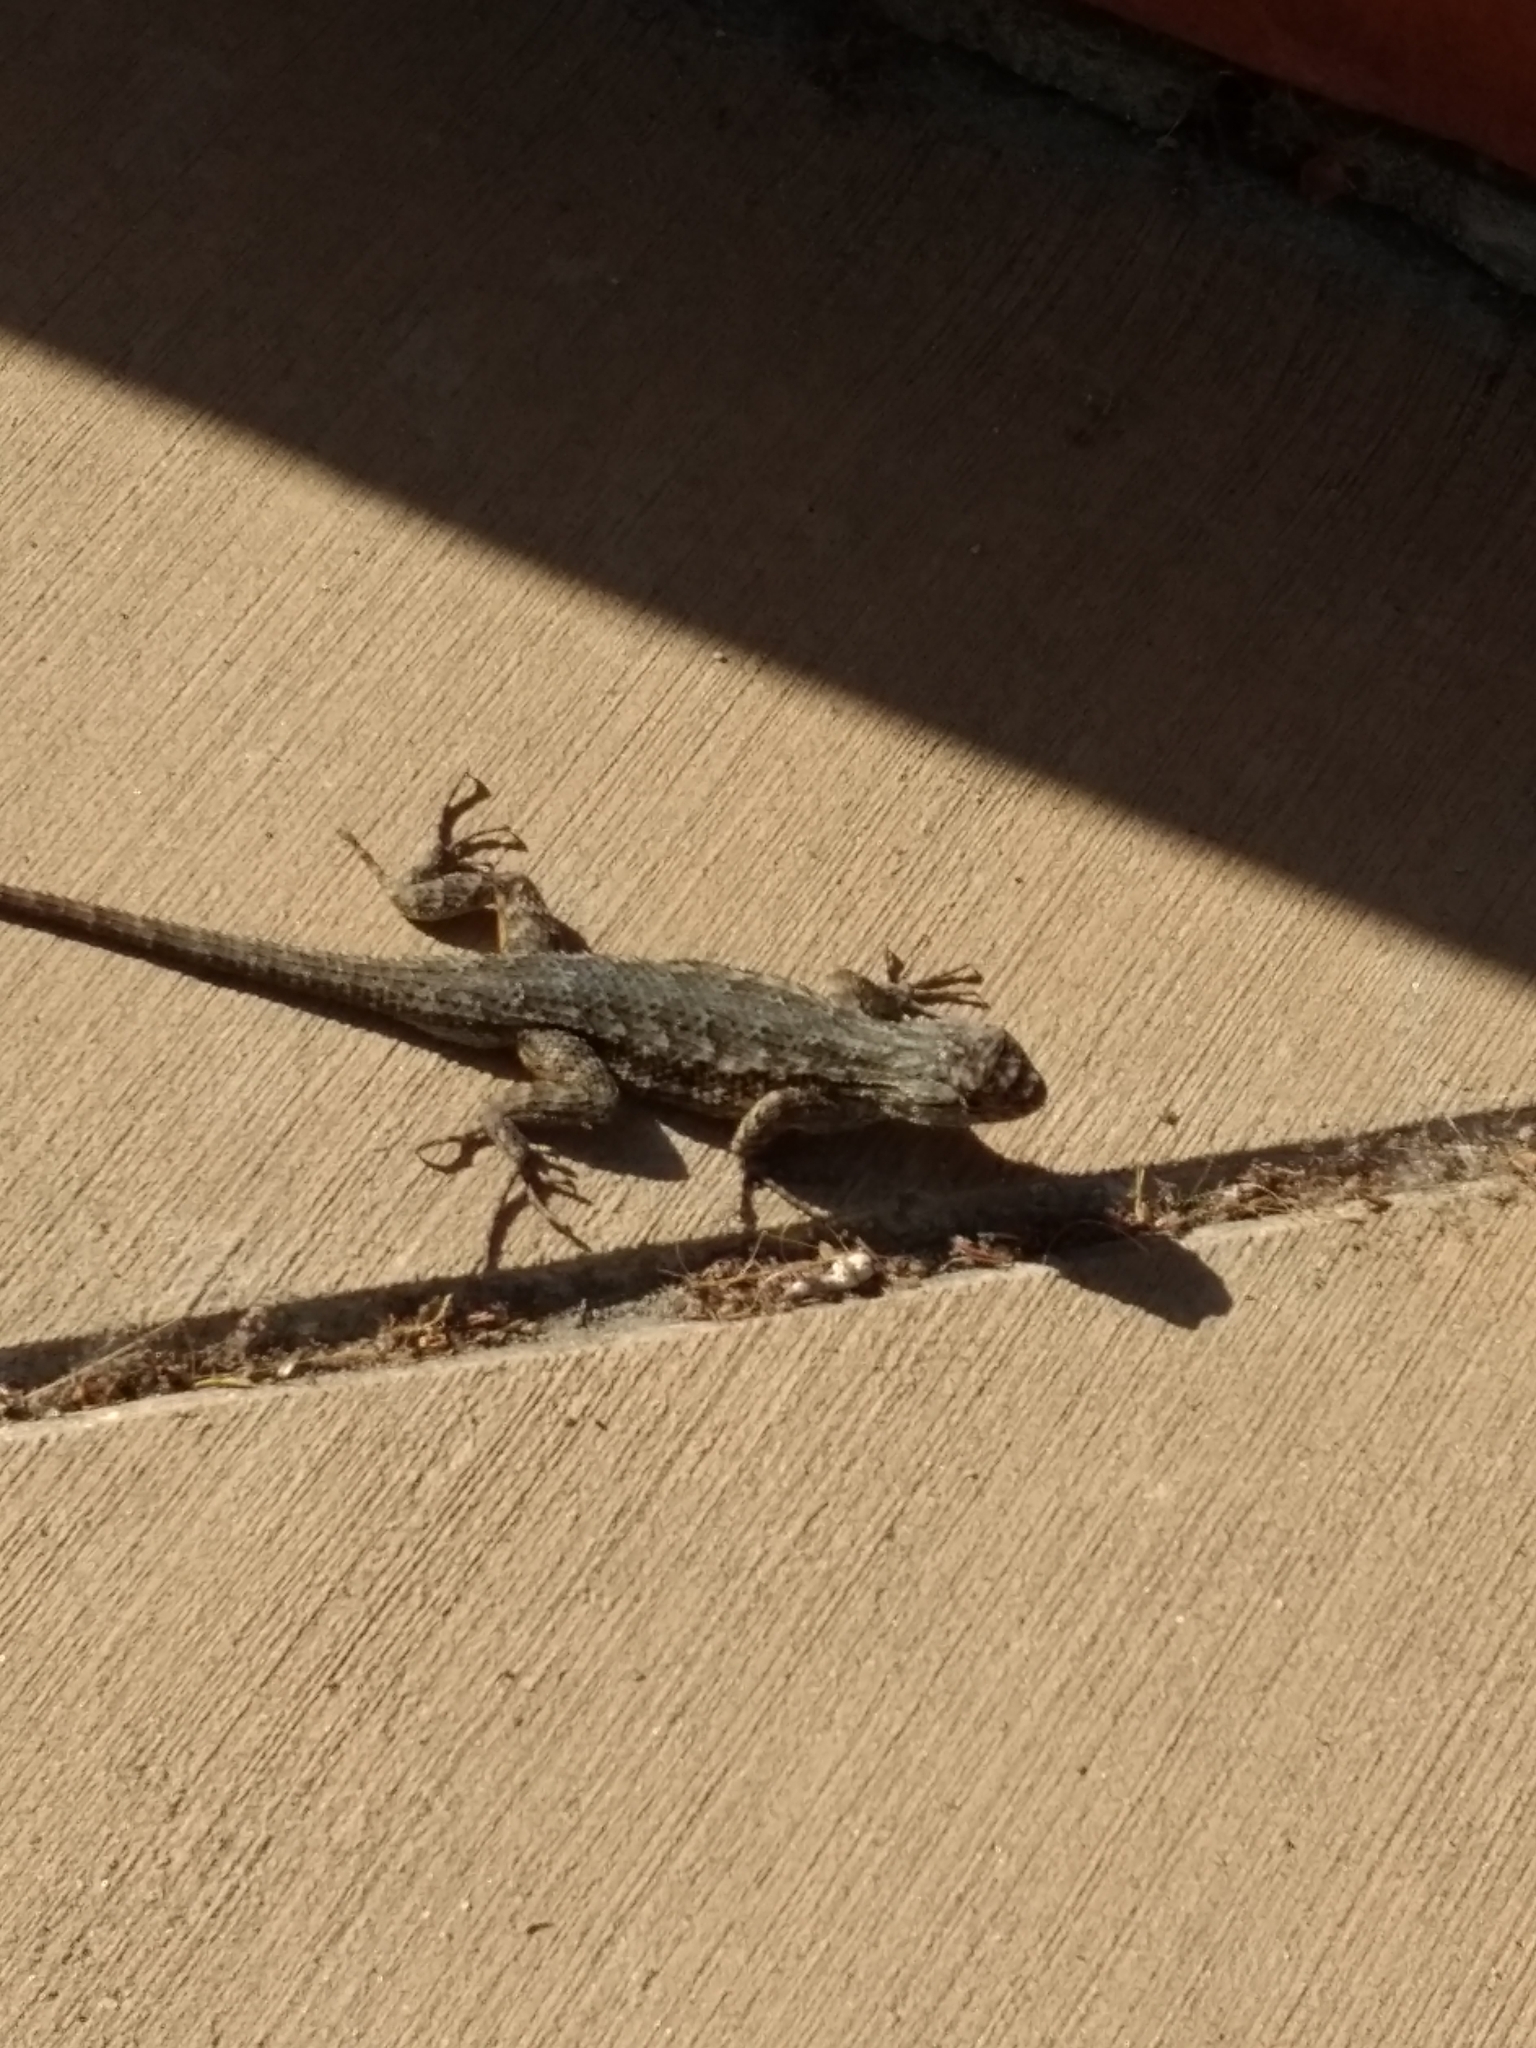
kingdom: Animalia
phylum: Chordata
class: Squamata
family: Phrynosomatidae
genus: Sceloporus
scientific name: Sceloporus occidentalis
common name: Western fence lizard
